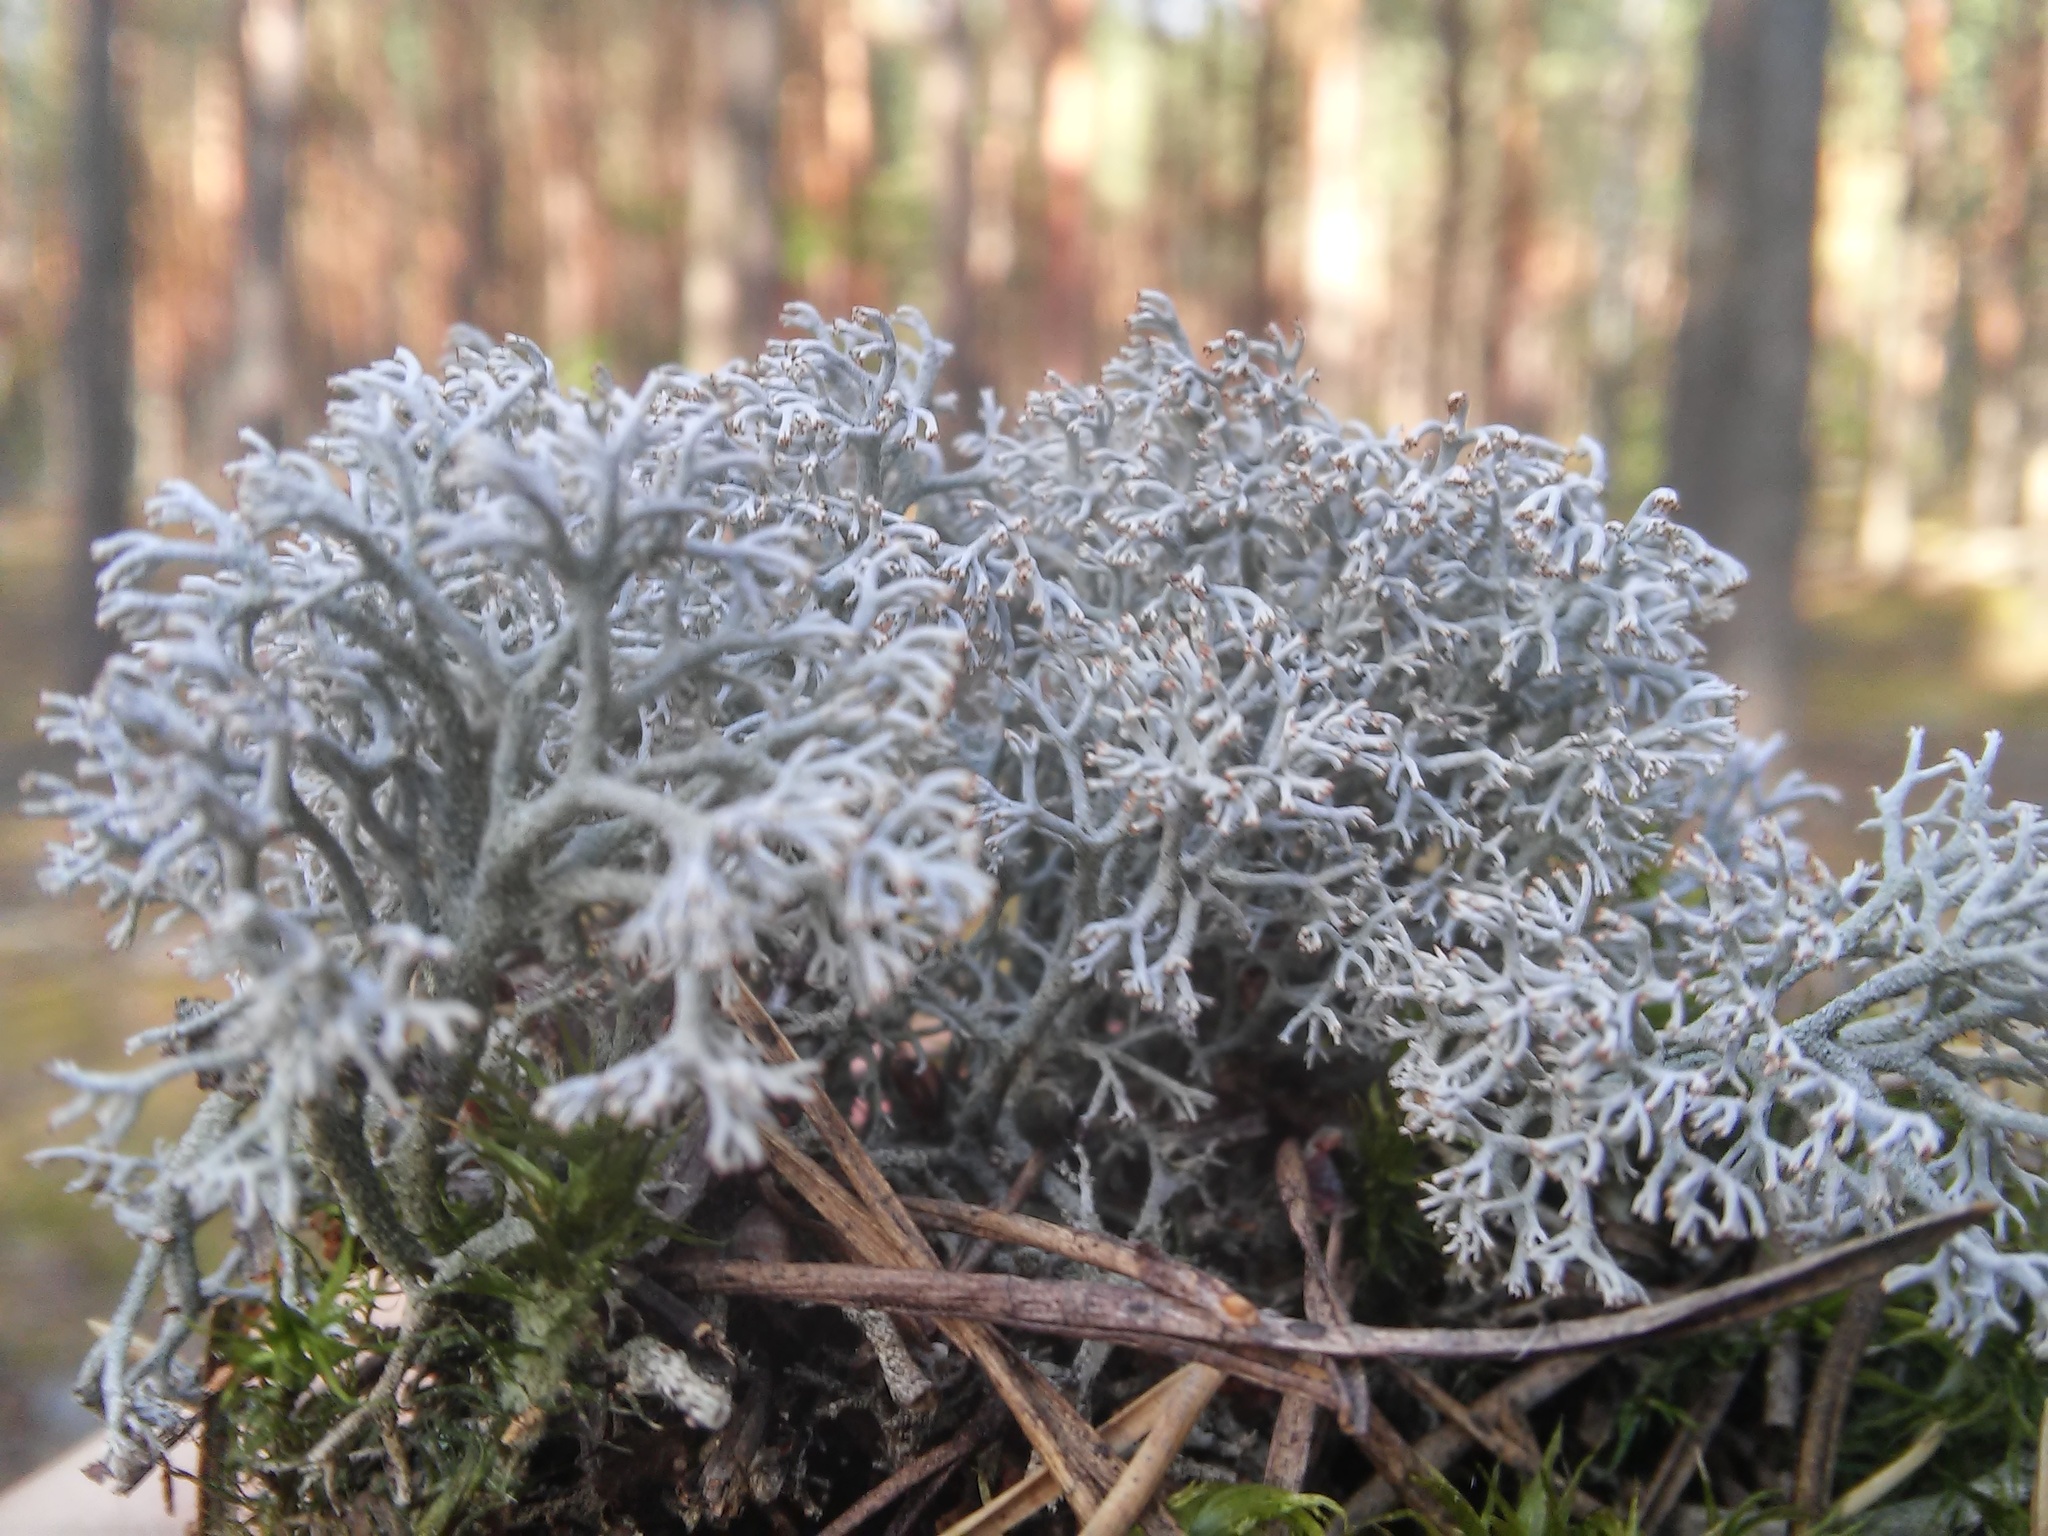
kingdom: Fungi
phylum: Ascomycota
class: Lecanoromycetes
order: Lecanorales
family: Cladoniaceae
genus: Cladonia
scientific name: Cladonia rangiferina
